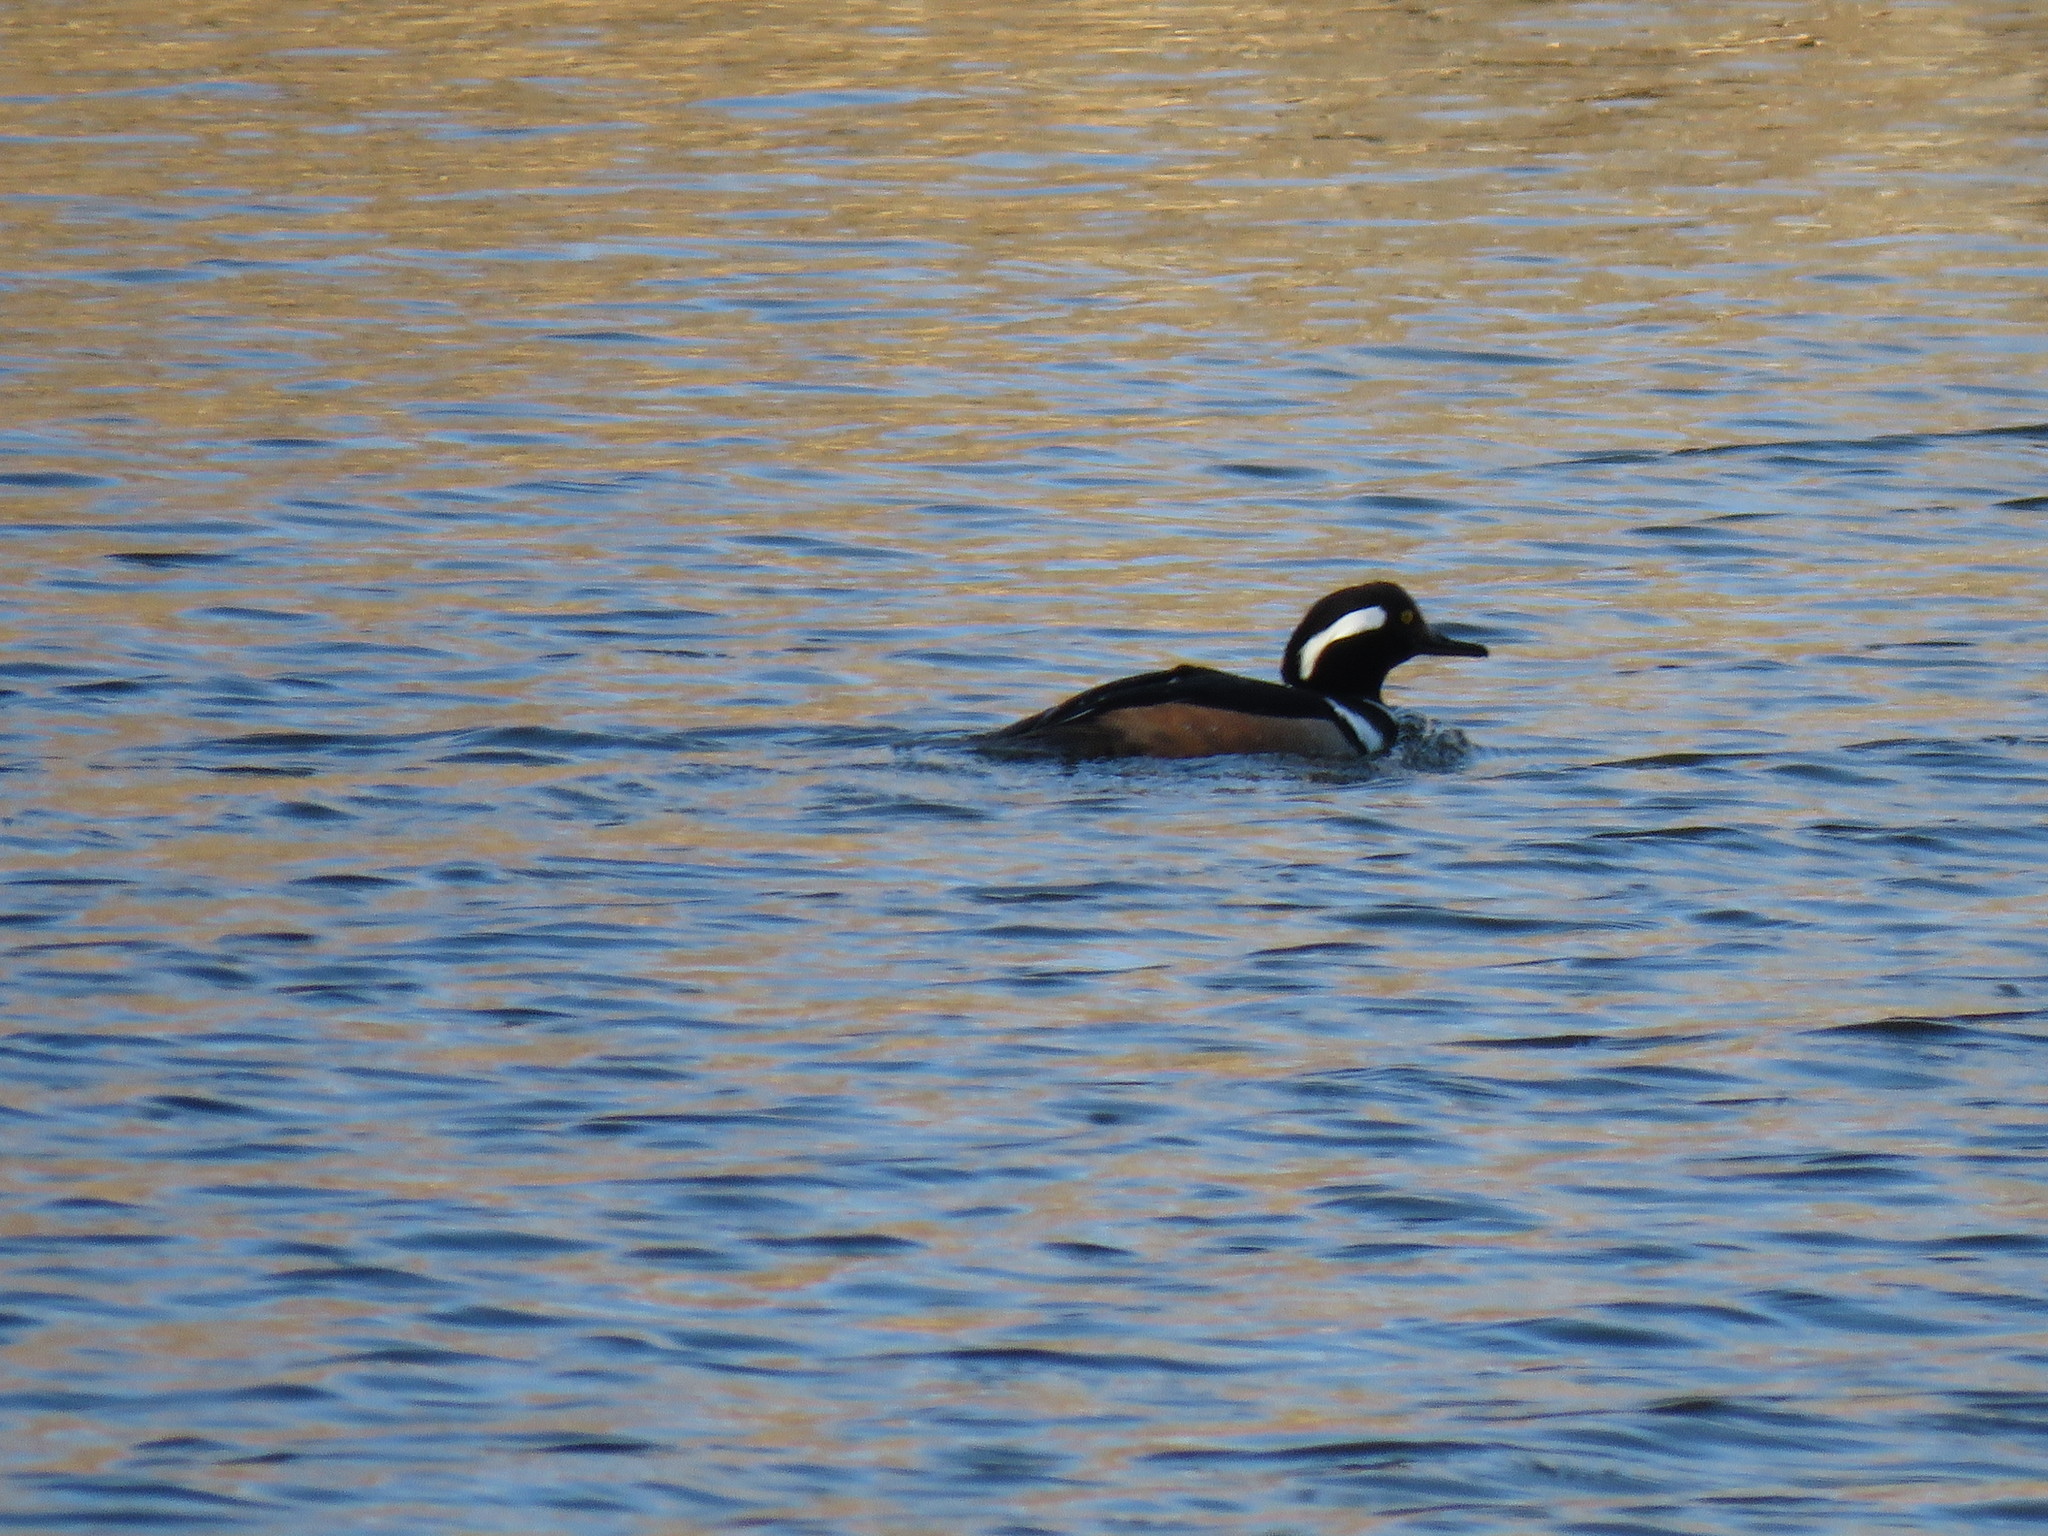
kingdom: Animalia
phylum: Chordata
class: Aves
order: Anseriformes
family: Anatidae
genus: Lophodytes
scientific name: Lophodytes cucullatus
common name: Hooded merganser
